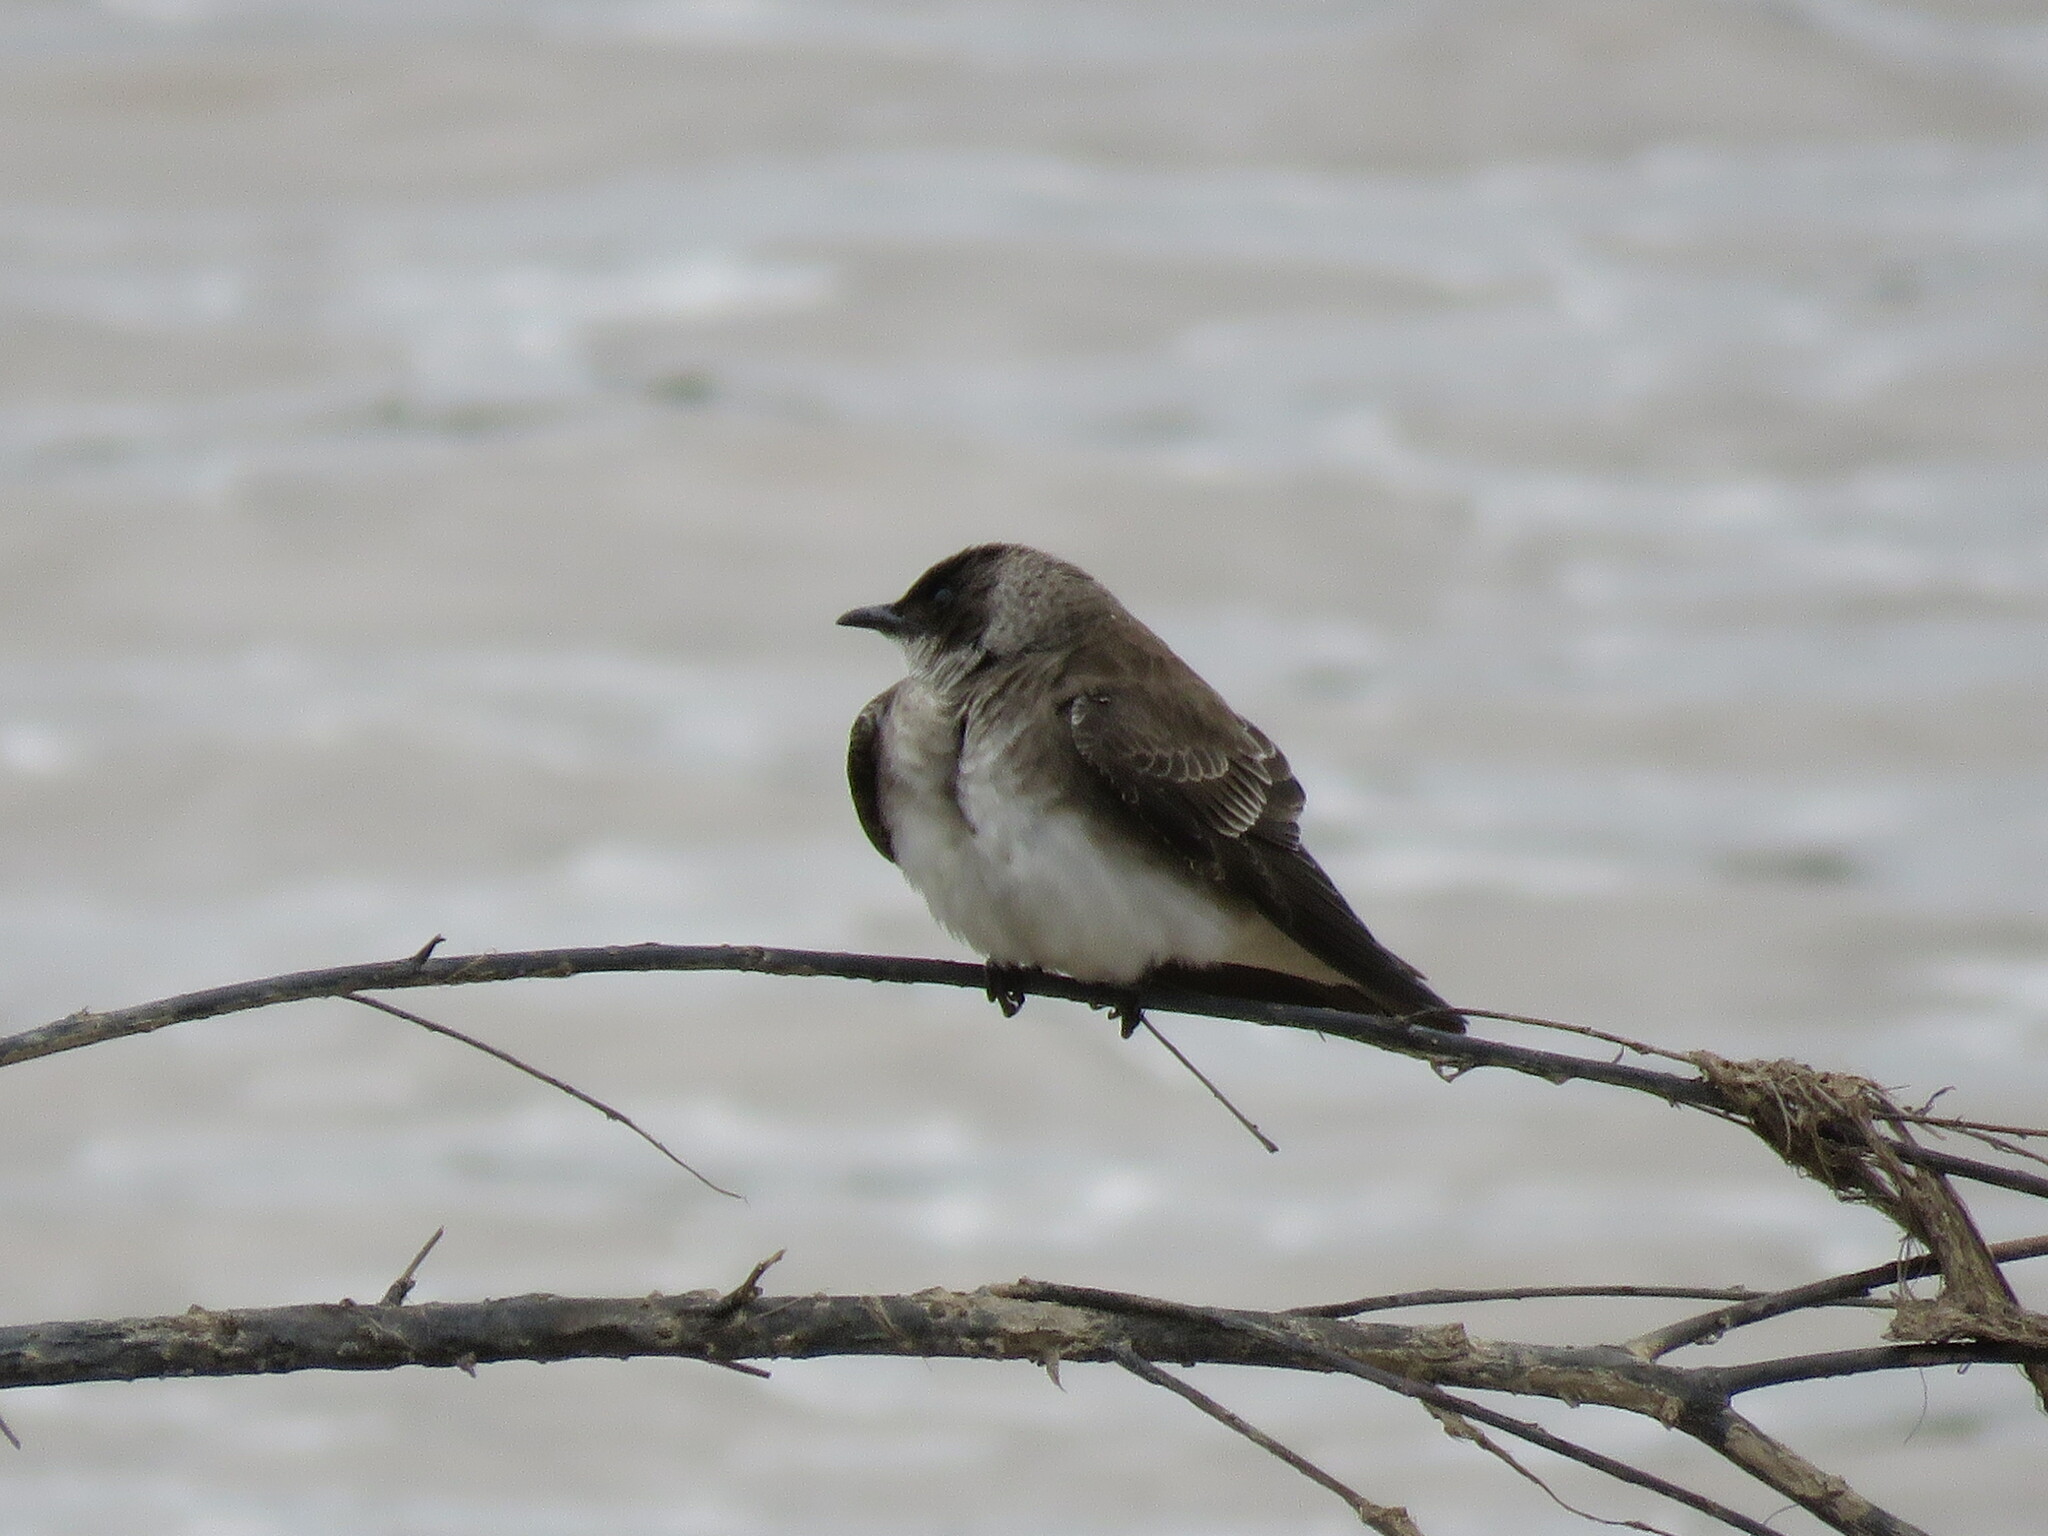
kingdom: Animalia
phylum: Chordata
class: Aves
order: Passeriformes
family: Hirundinidae
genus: Progne
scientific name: Progne tapera
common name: Brown-chested martin
